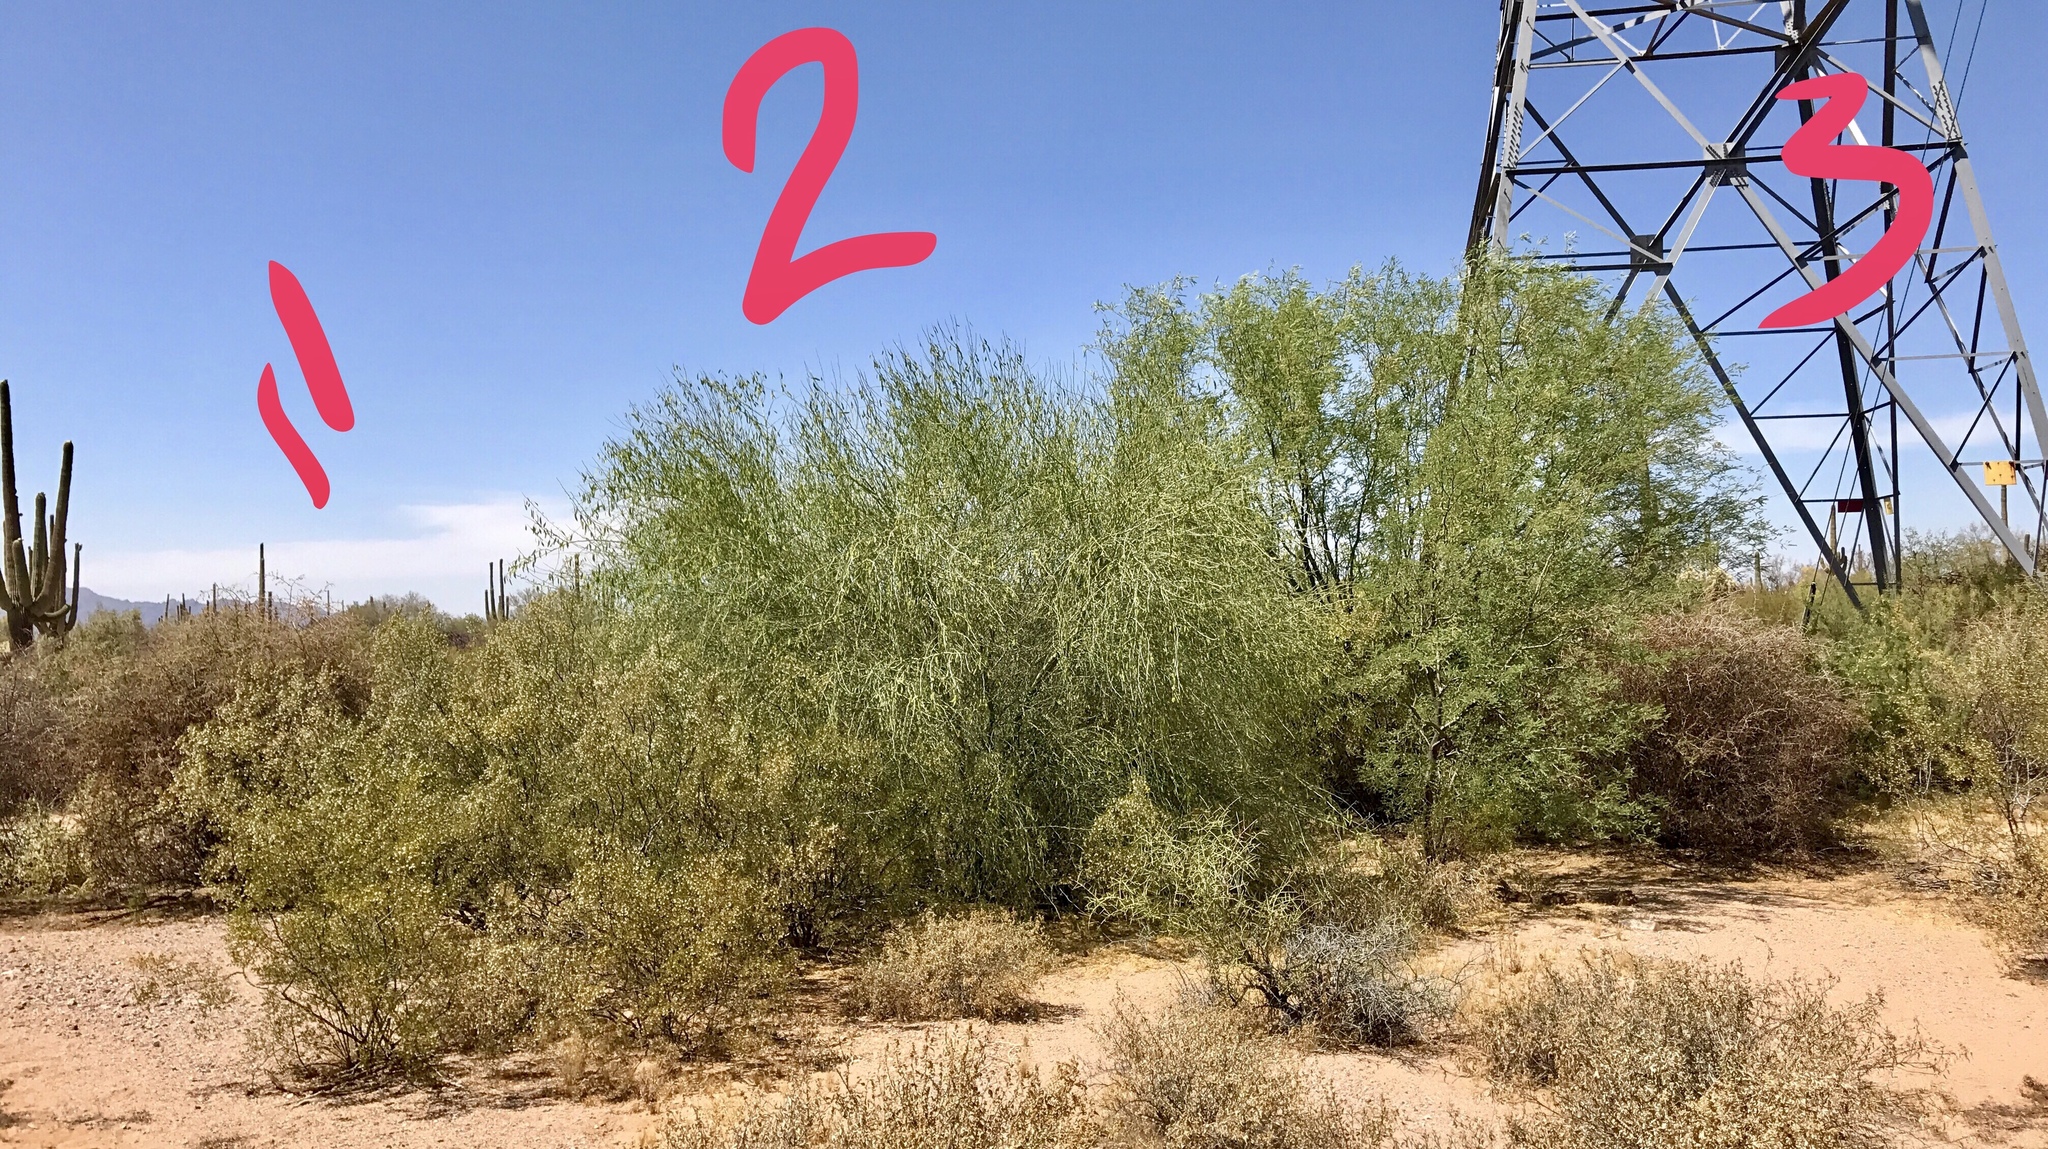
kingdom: Plantae
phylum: Tracheophyta
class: Magnoliopsida
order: Fabales
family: Fabaceae
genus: Parkinsonia
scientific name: Parkinsonia florida
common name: Blue paloverde
